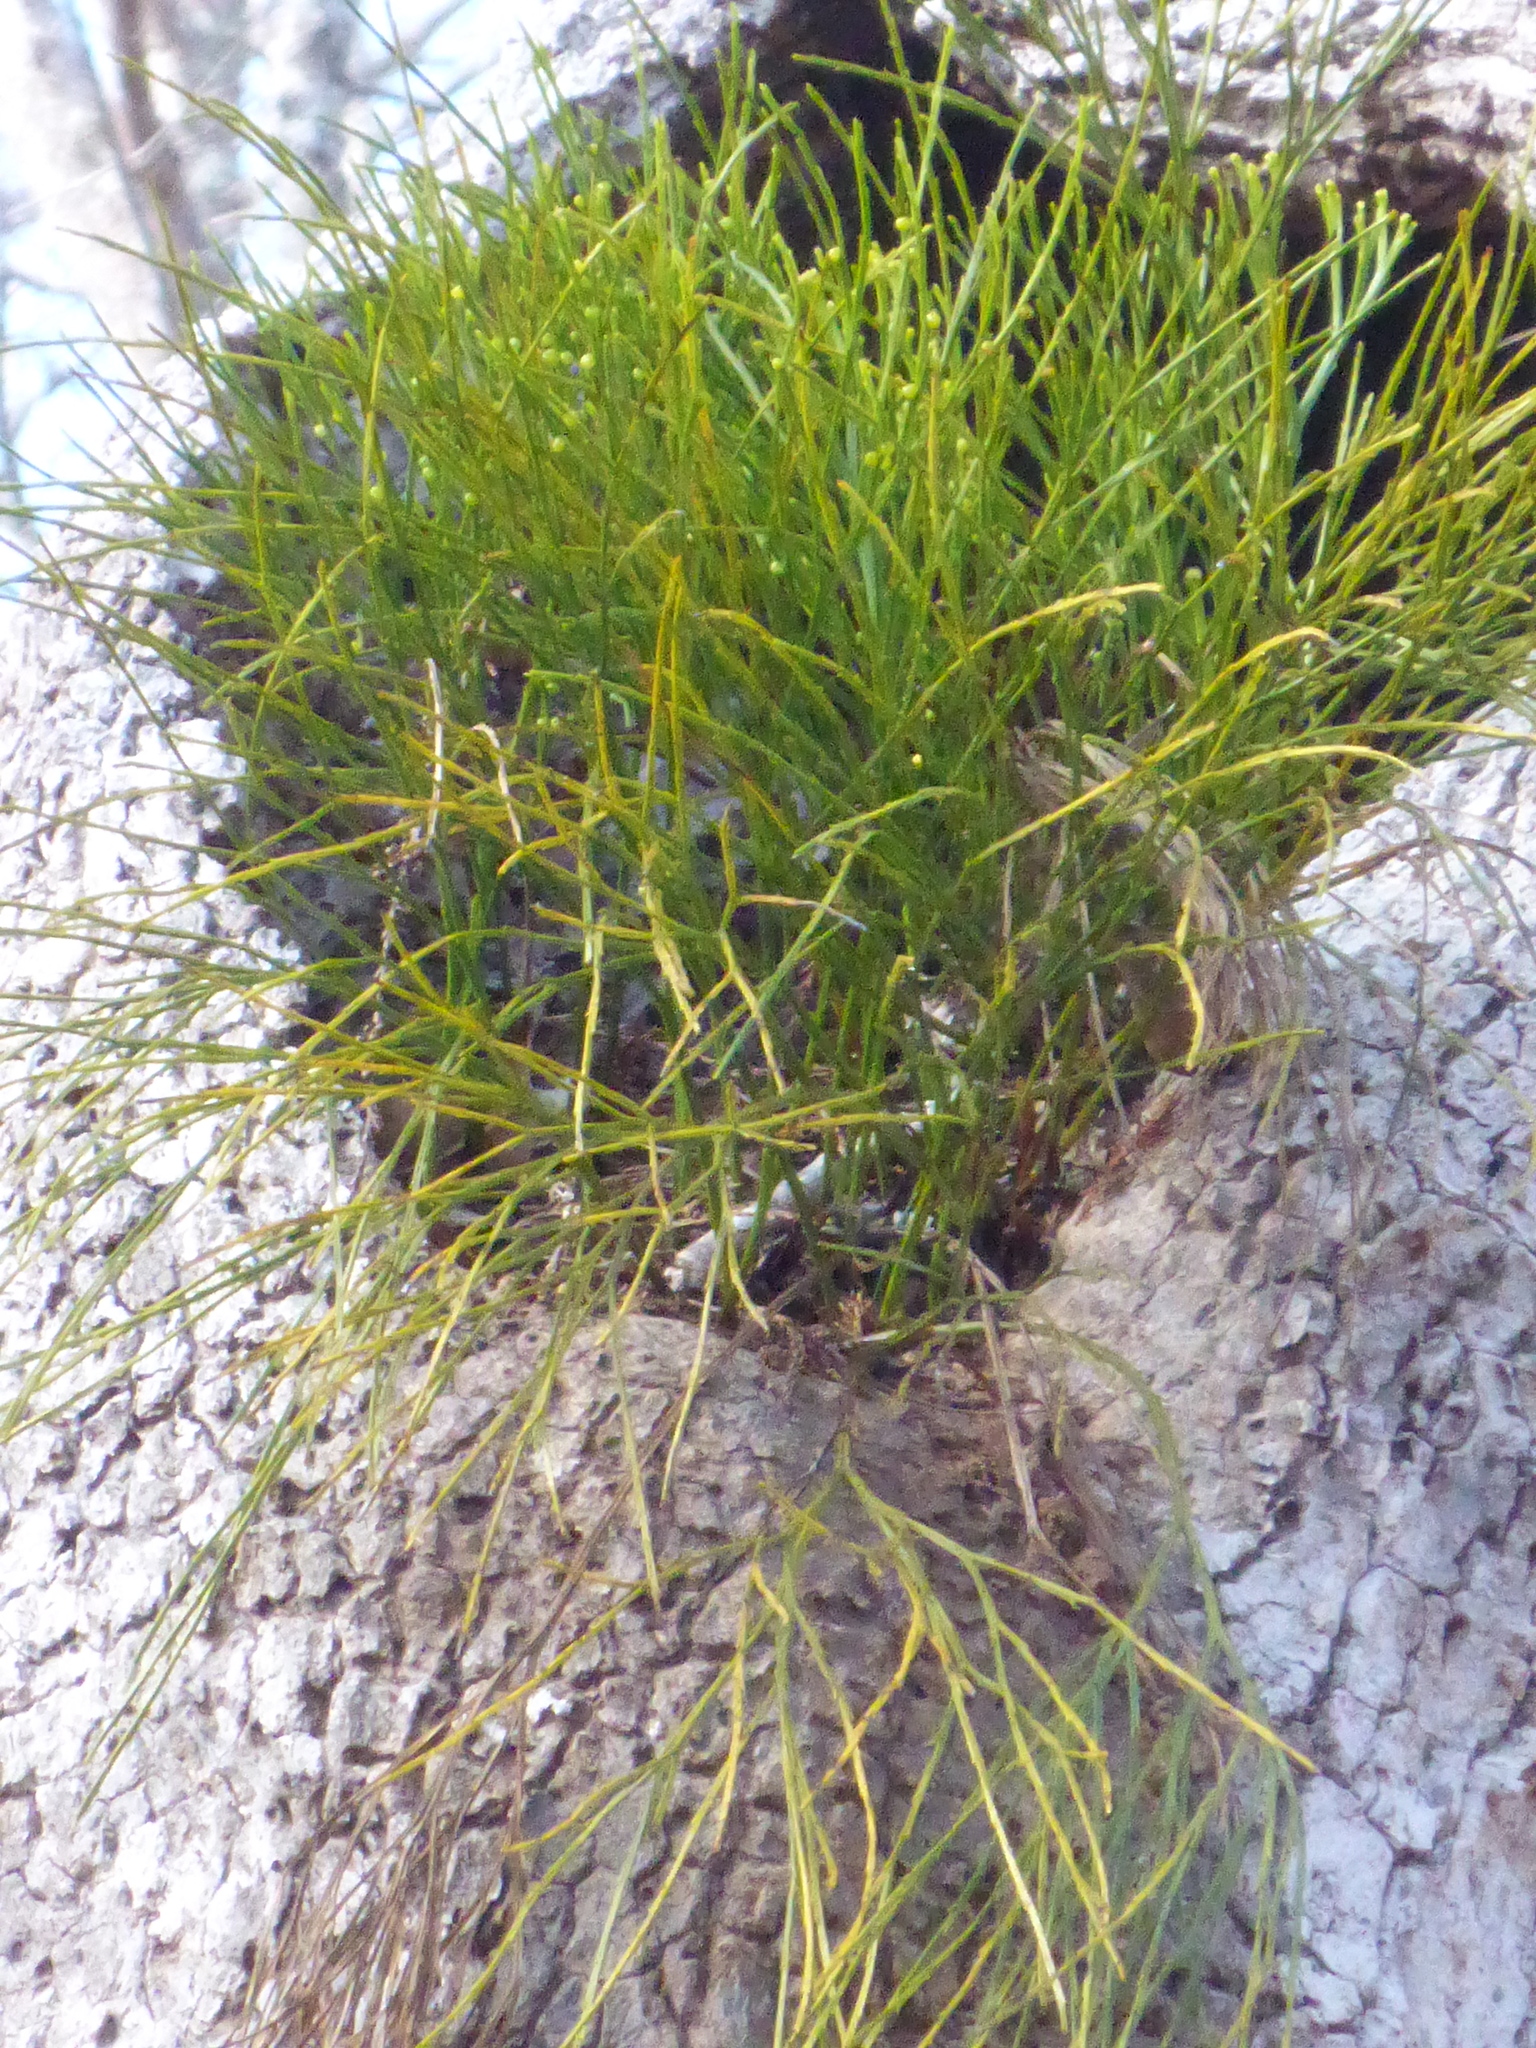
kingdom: Plantae
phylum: Tracheophyta
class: Polypodiopsida
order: Psilotales
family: Psilotaceae
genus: Psilotum
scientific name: Psilotum nudum
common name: Skeleton fork fern
